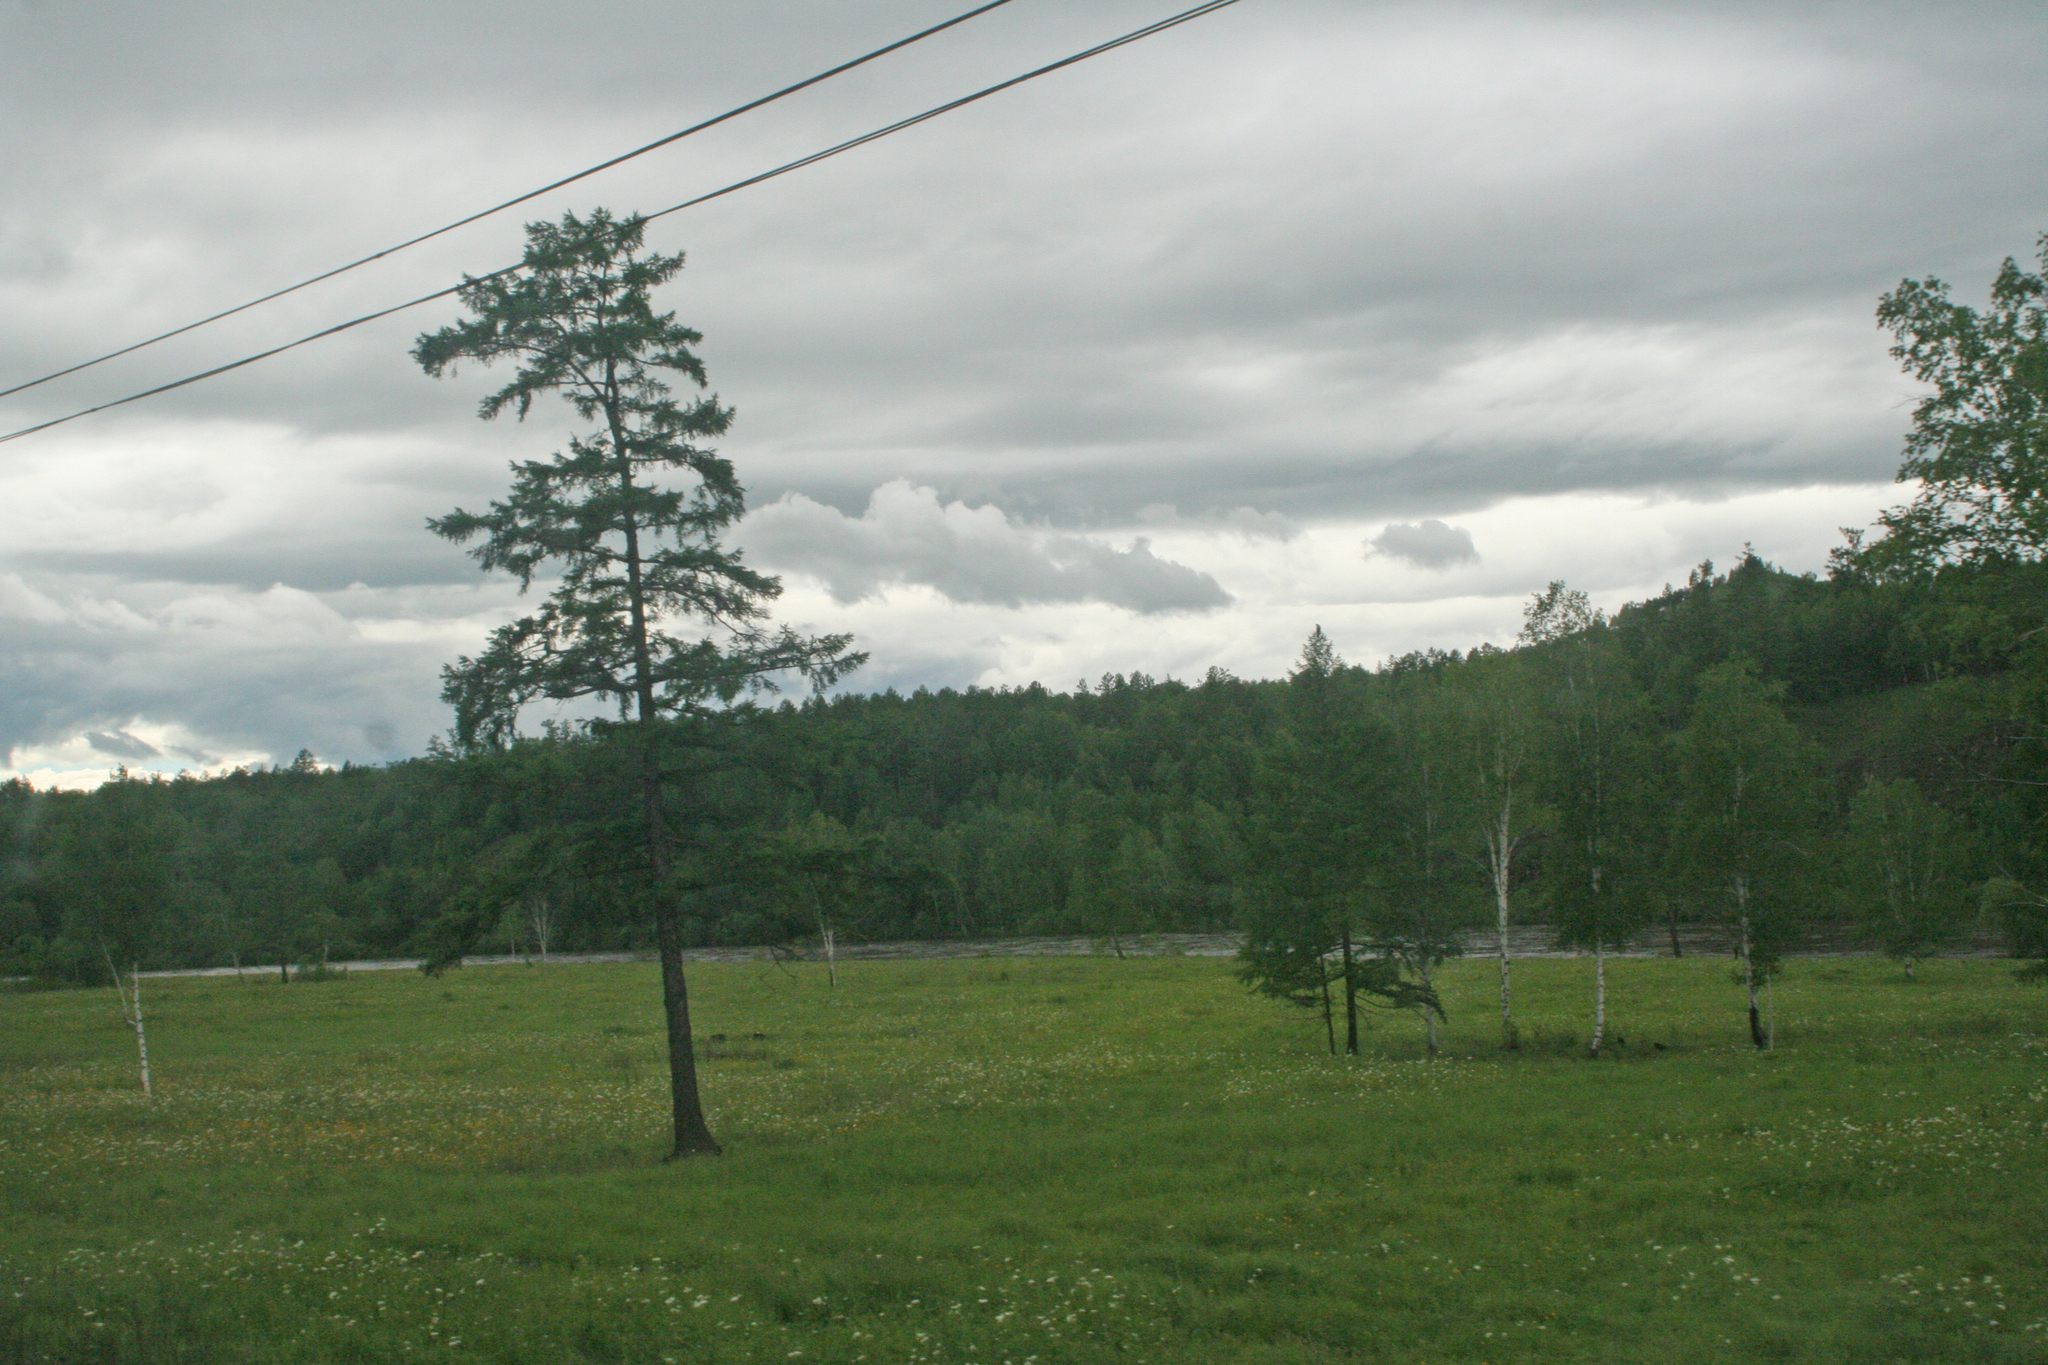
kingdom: Plantae
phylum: Tracheophyta
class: Pinopsida
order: Pinales
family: Pinaceae
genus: Larix
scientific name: Larix gmelinii
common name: Dahurian larch
